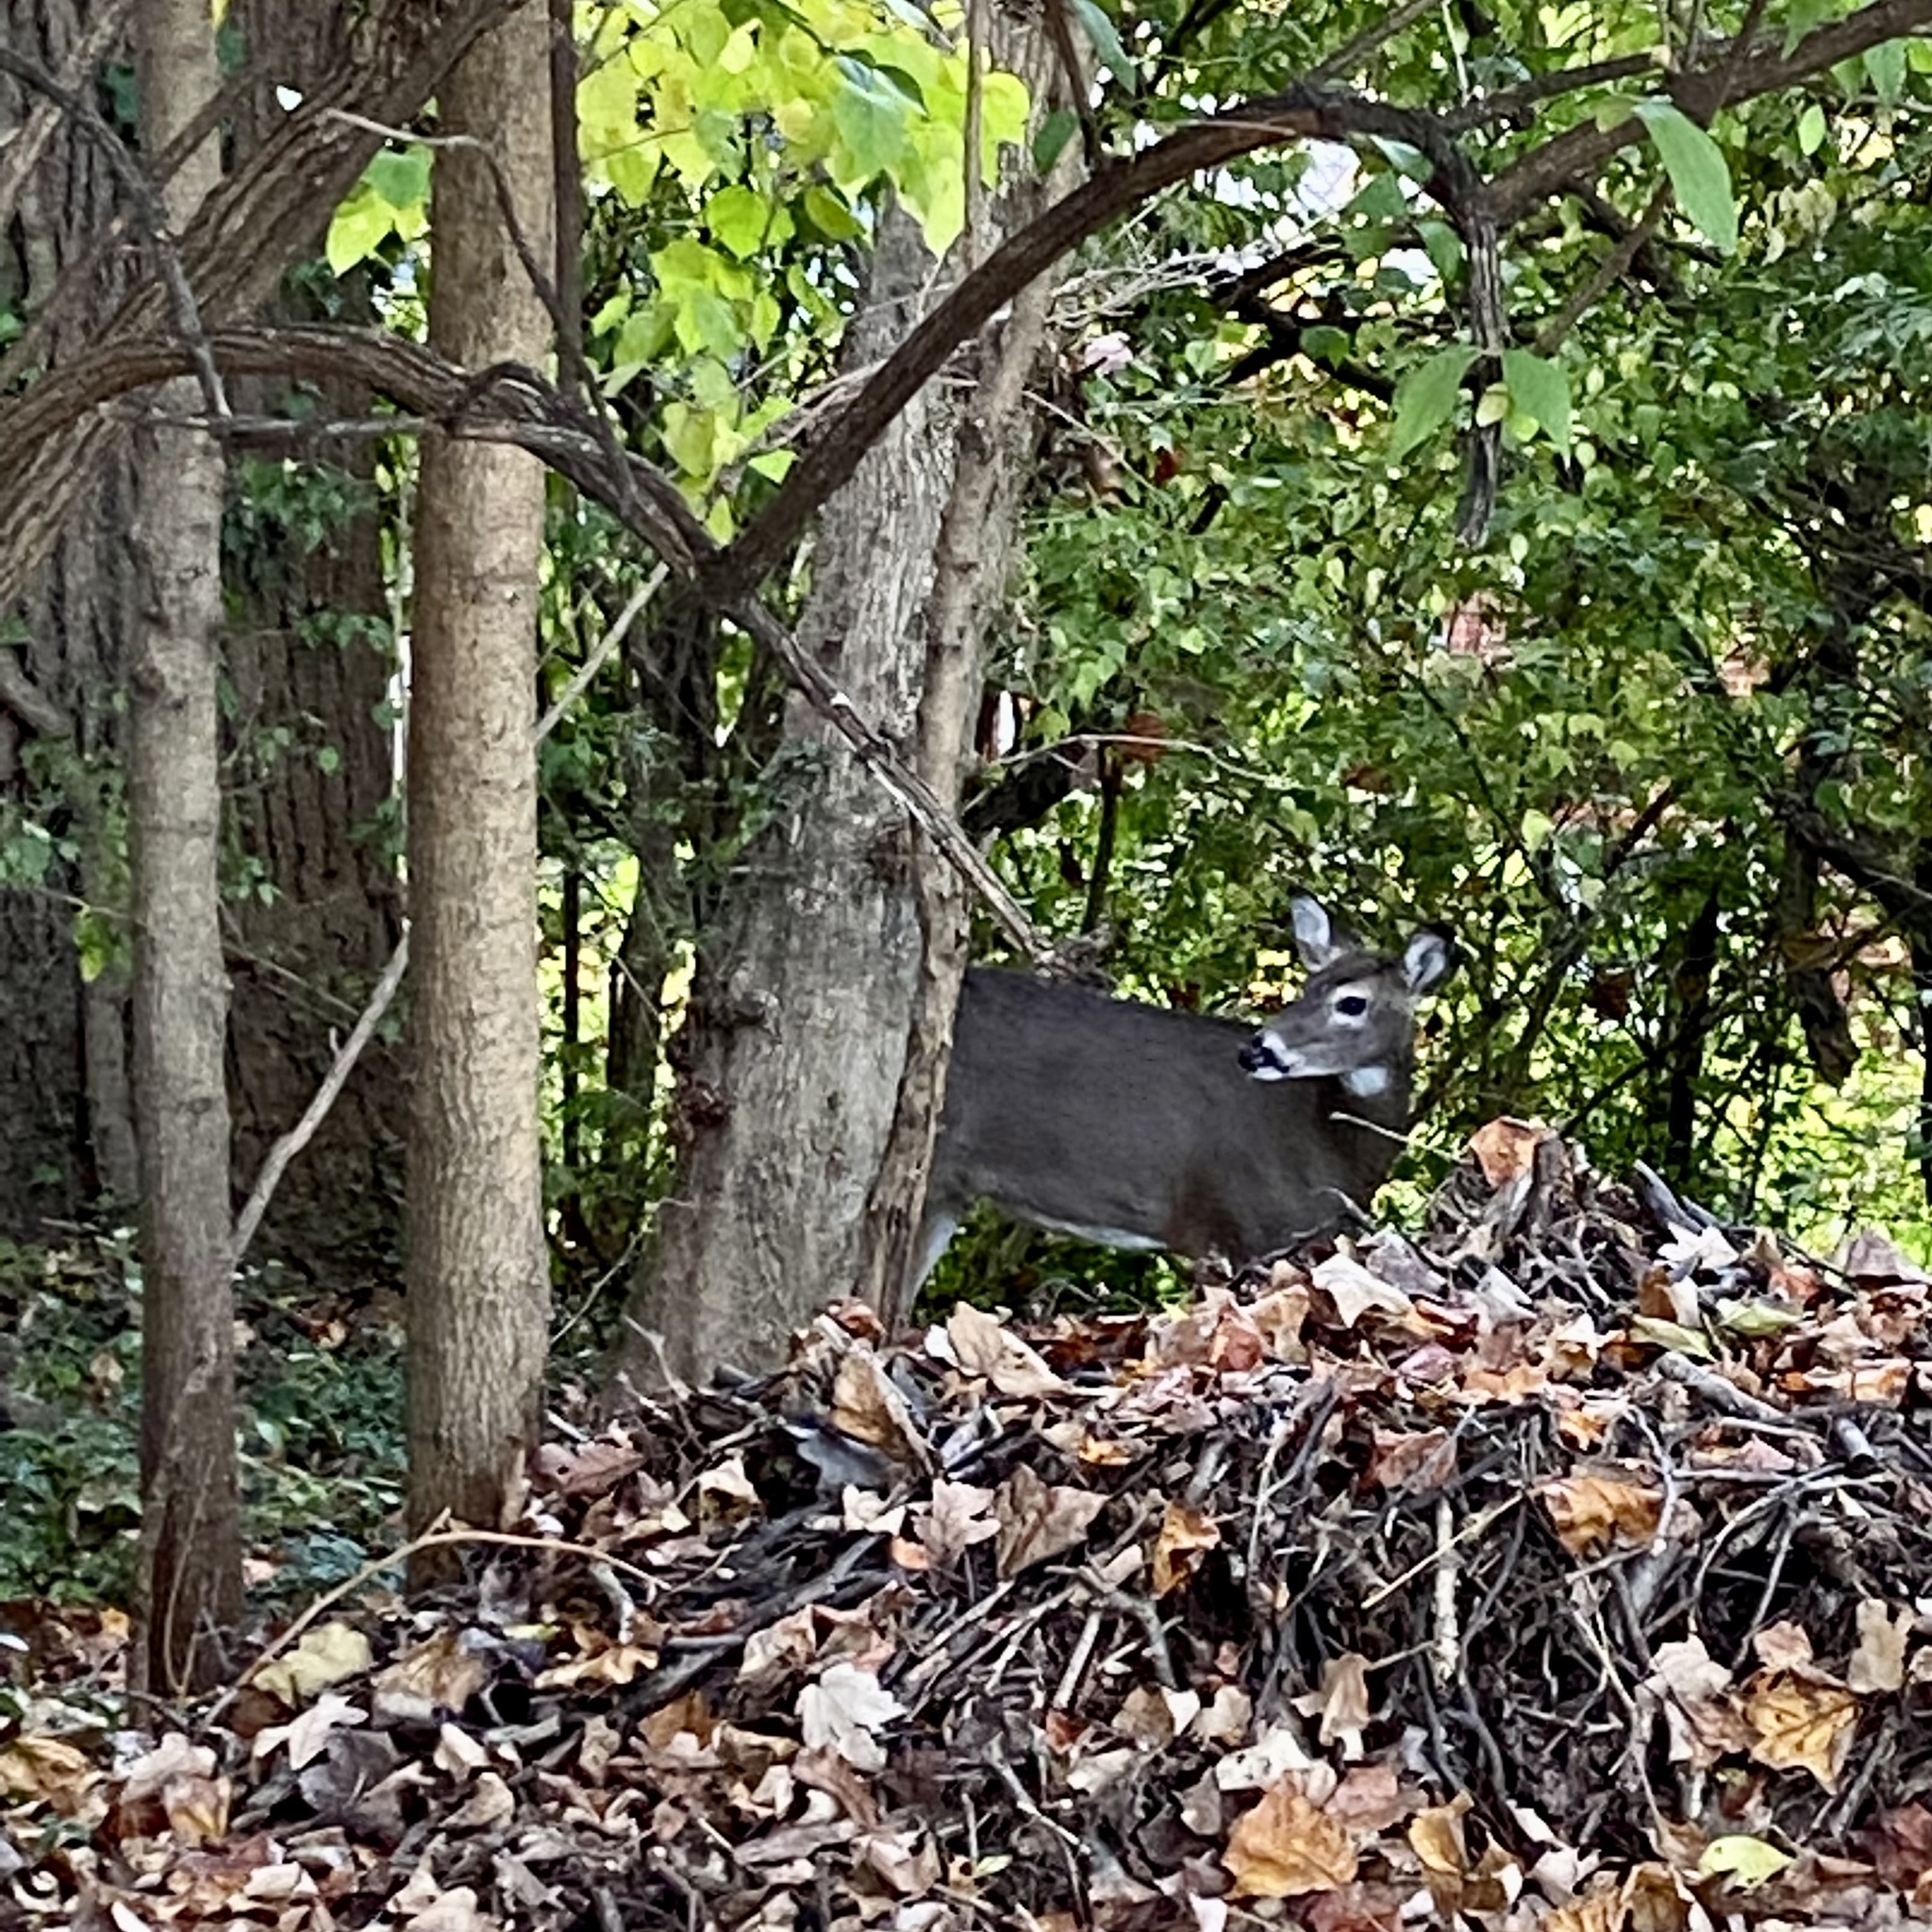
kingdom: Animalia
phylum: Chordata
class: Mammalia
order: Artiodactyla
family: Cervidae
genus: Odocoileus
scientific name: Odocoileus virginianus
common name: White-tailed deer
